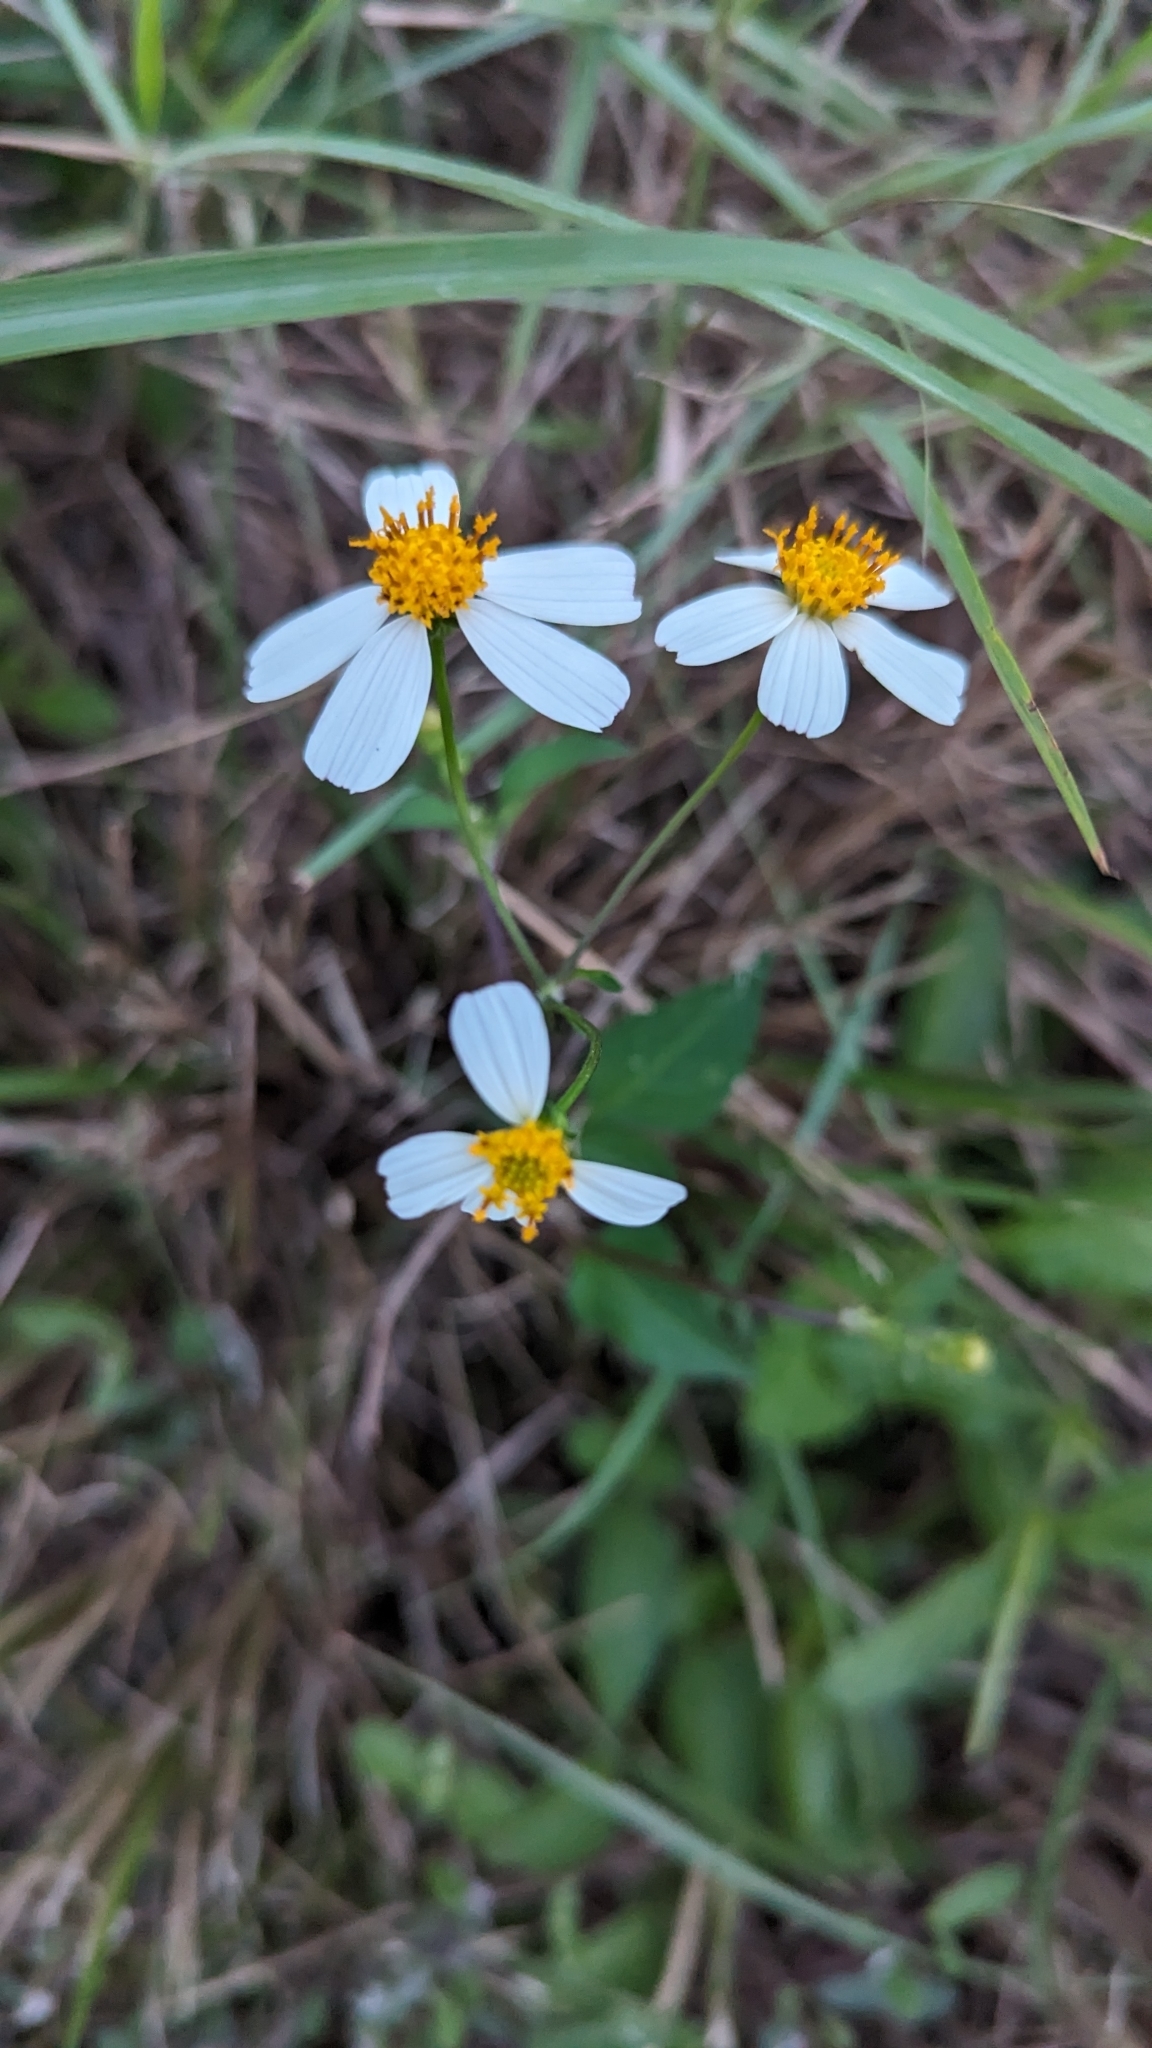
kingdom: Plantae
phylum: Tracheophyta
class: Magnoliopsida
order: Asterales
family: Asteraceae
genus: Bidens
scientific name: Bidens alba
